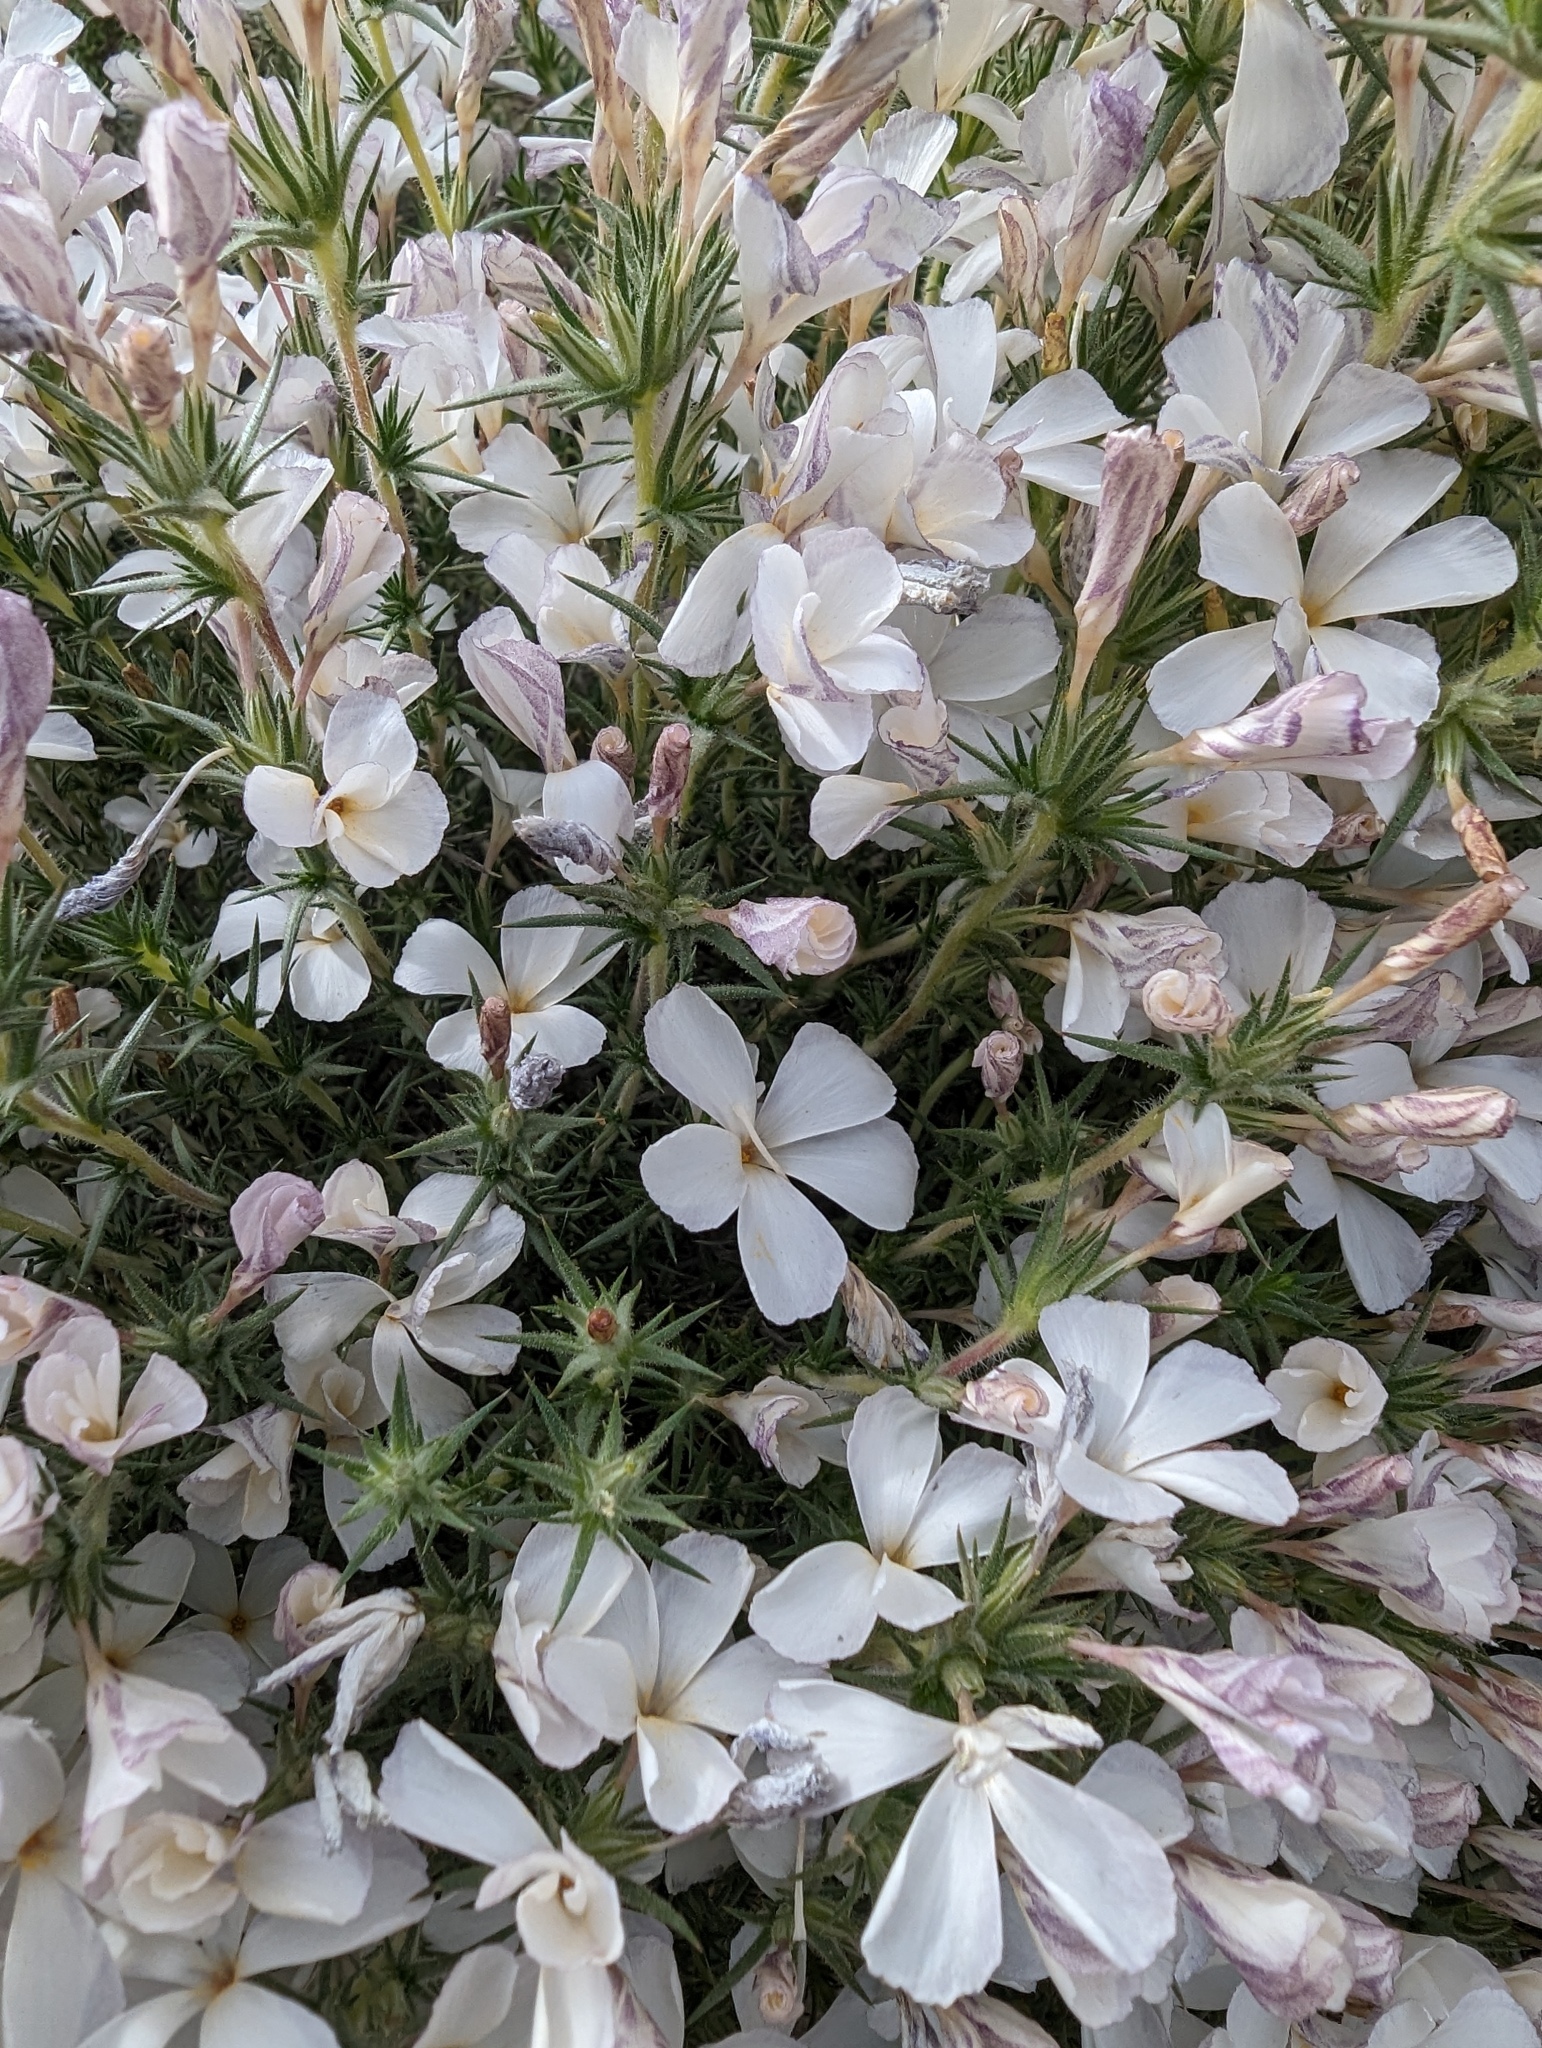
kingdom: Plantae
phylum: Tracheophyta
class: Magnoliopsida
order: Ericales
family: Polemoniaceae
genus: Linanthus
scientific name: Linanthus pungens
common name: Granite prickly phlox
